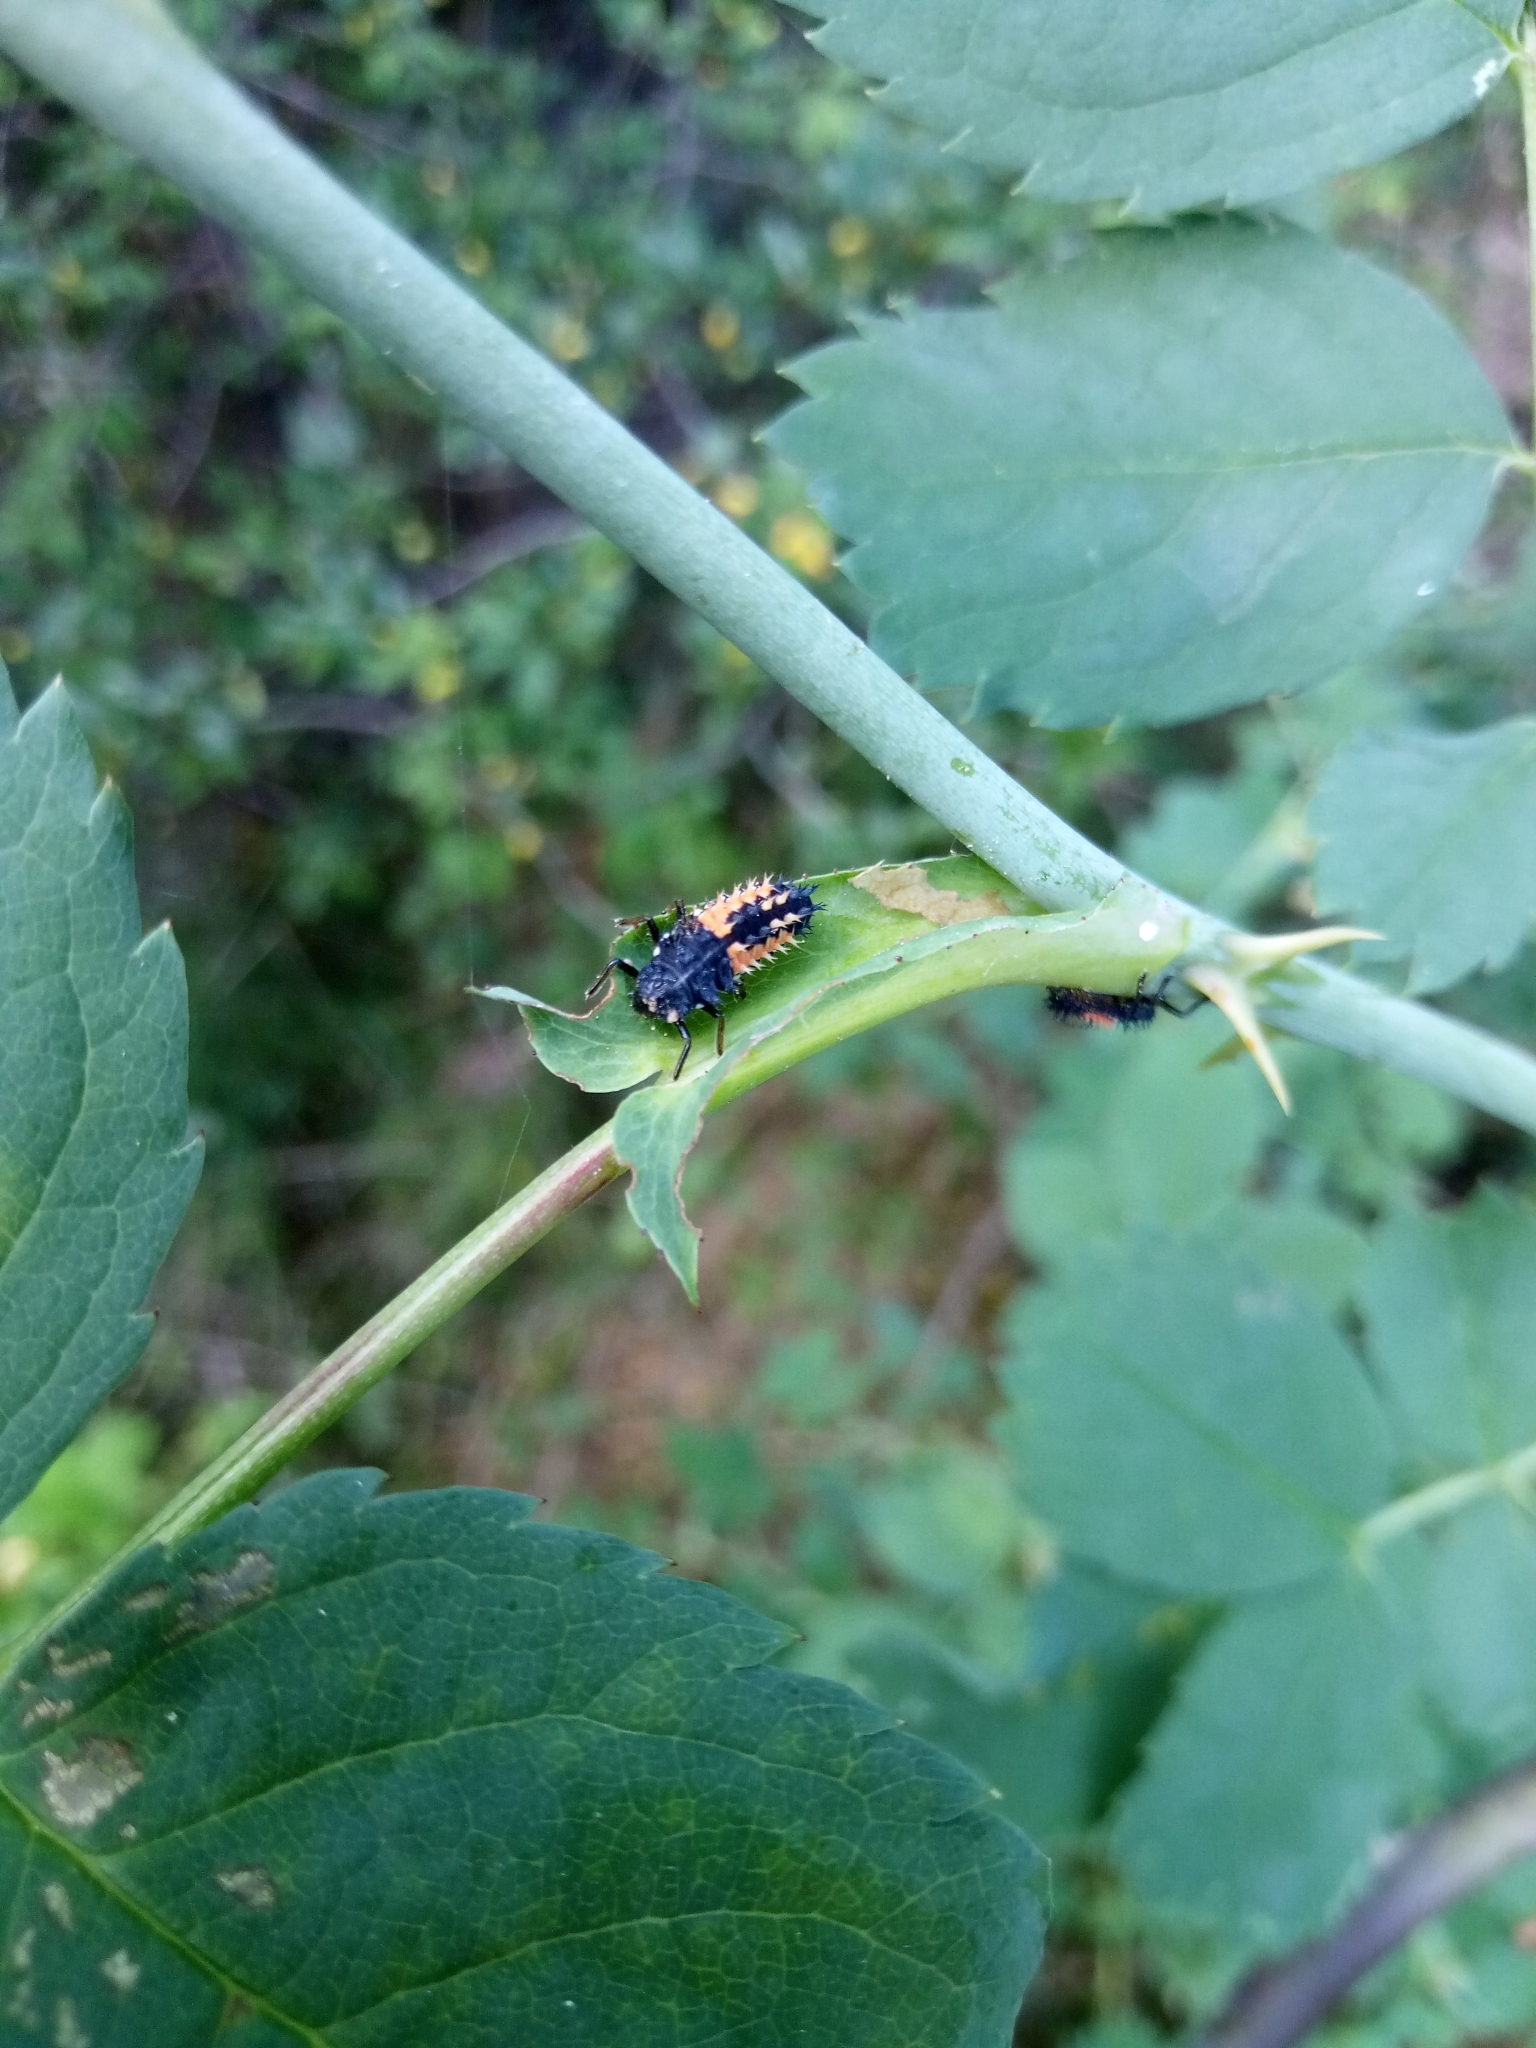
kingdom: Animalia
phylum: Arthropoda
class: Insecta
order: Coleoptera
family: Coccinellidae
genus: Harmonia
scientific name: Harmonia axyridis
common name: Harlequin ladybird
